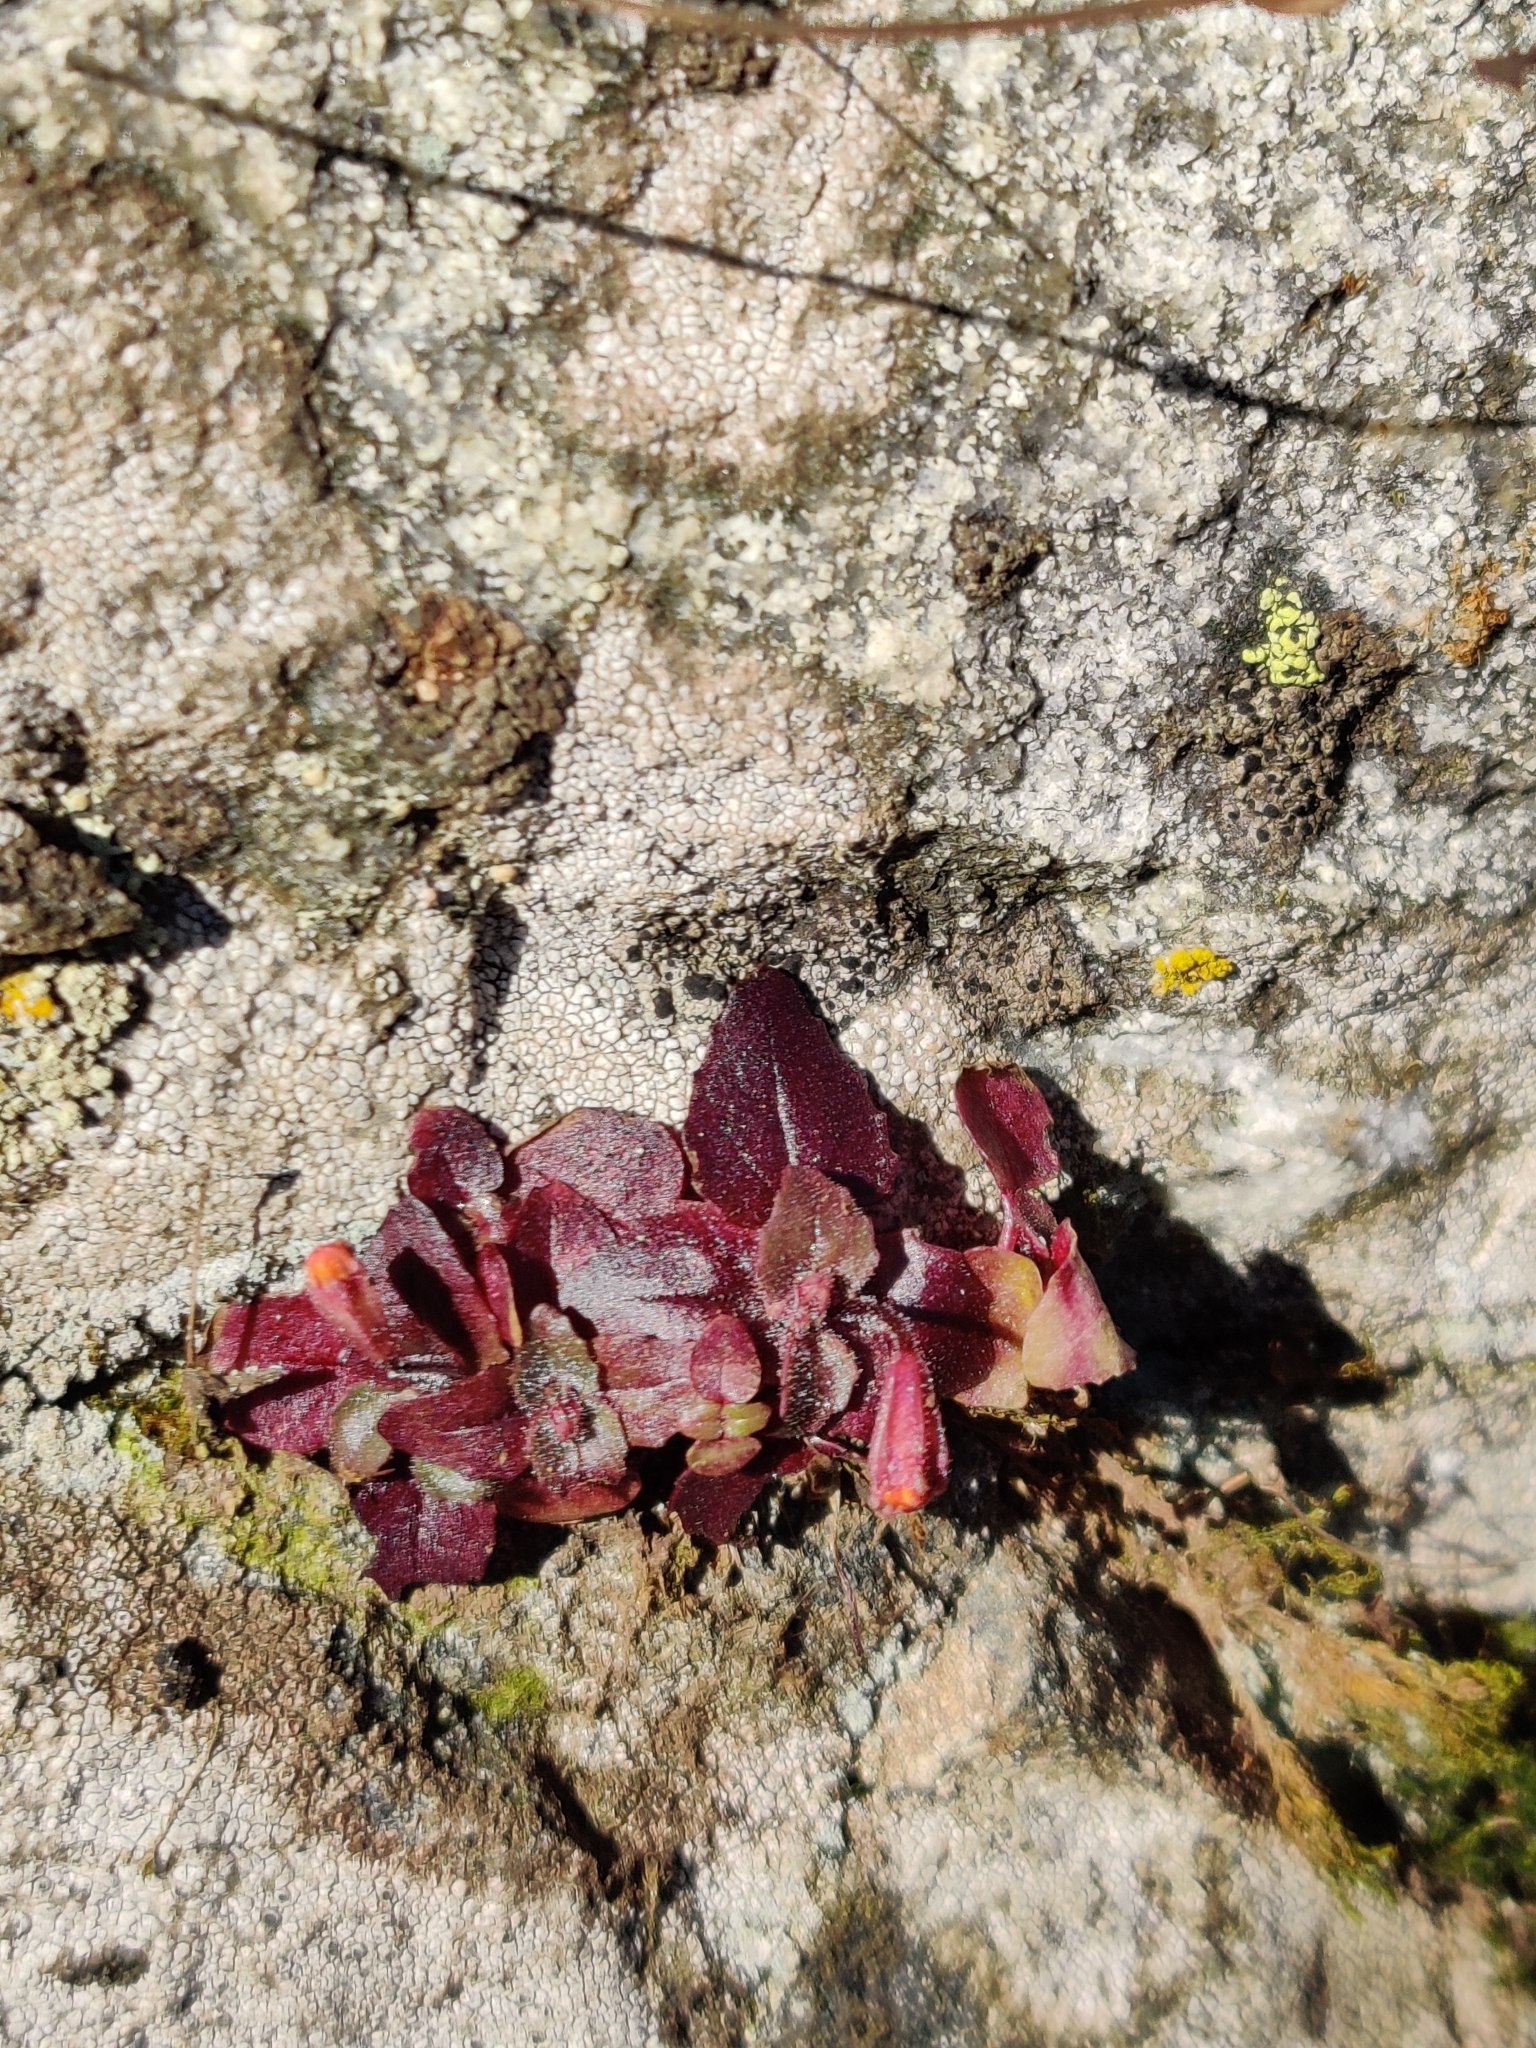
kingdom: Plantae
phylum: Tracheophyta
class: Magnoliopsida
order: Lamiales
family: Phrymaceae
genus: Erythranthe
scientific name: Erythranthe alsinoides
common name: Chickweed monkeyflower
